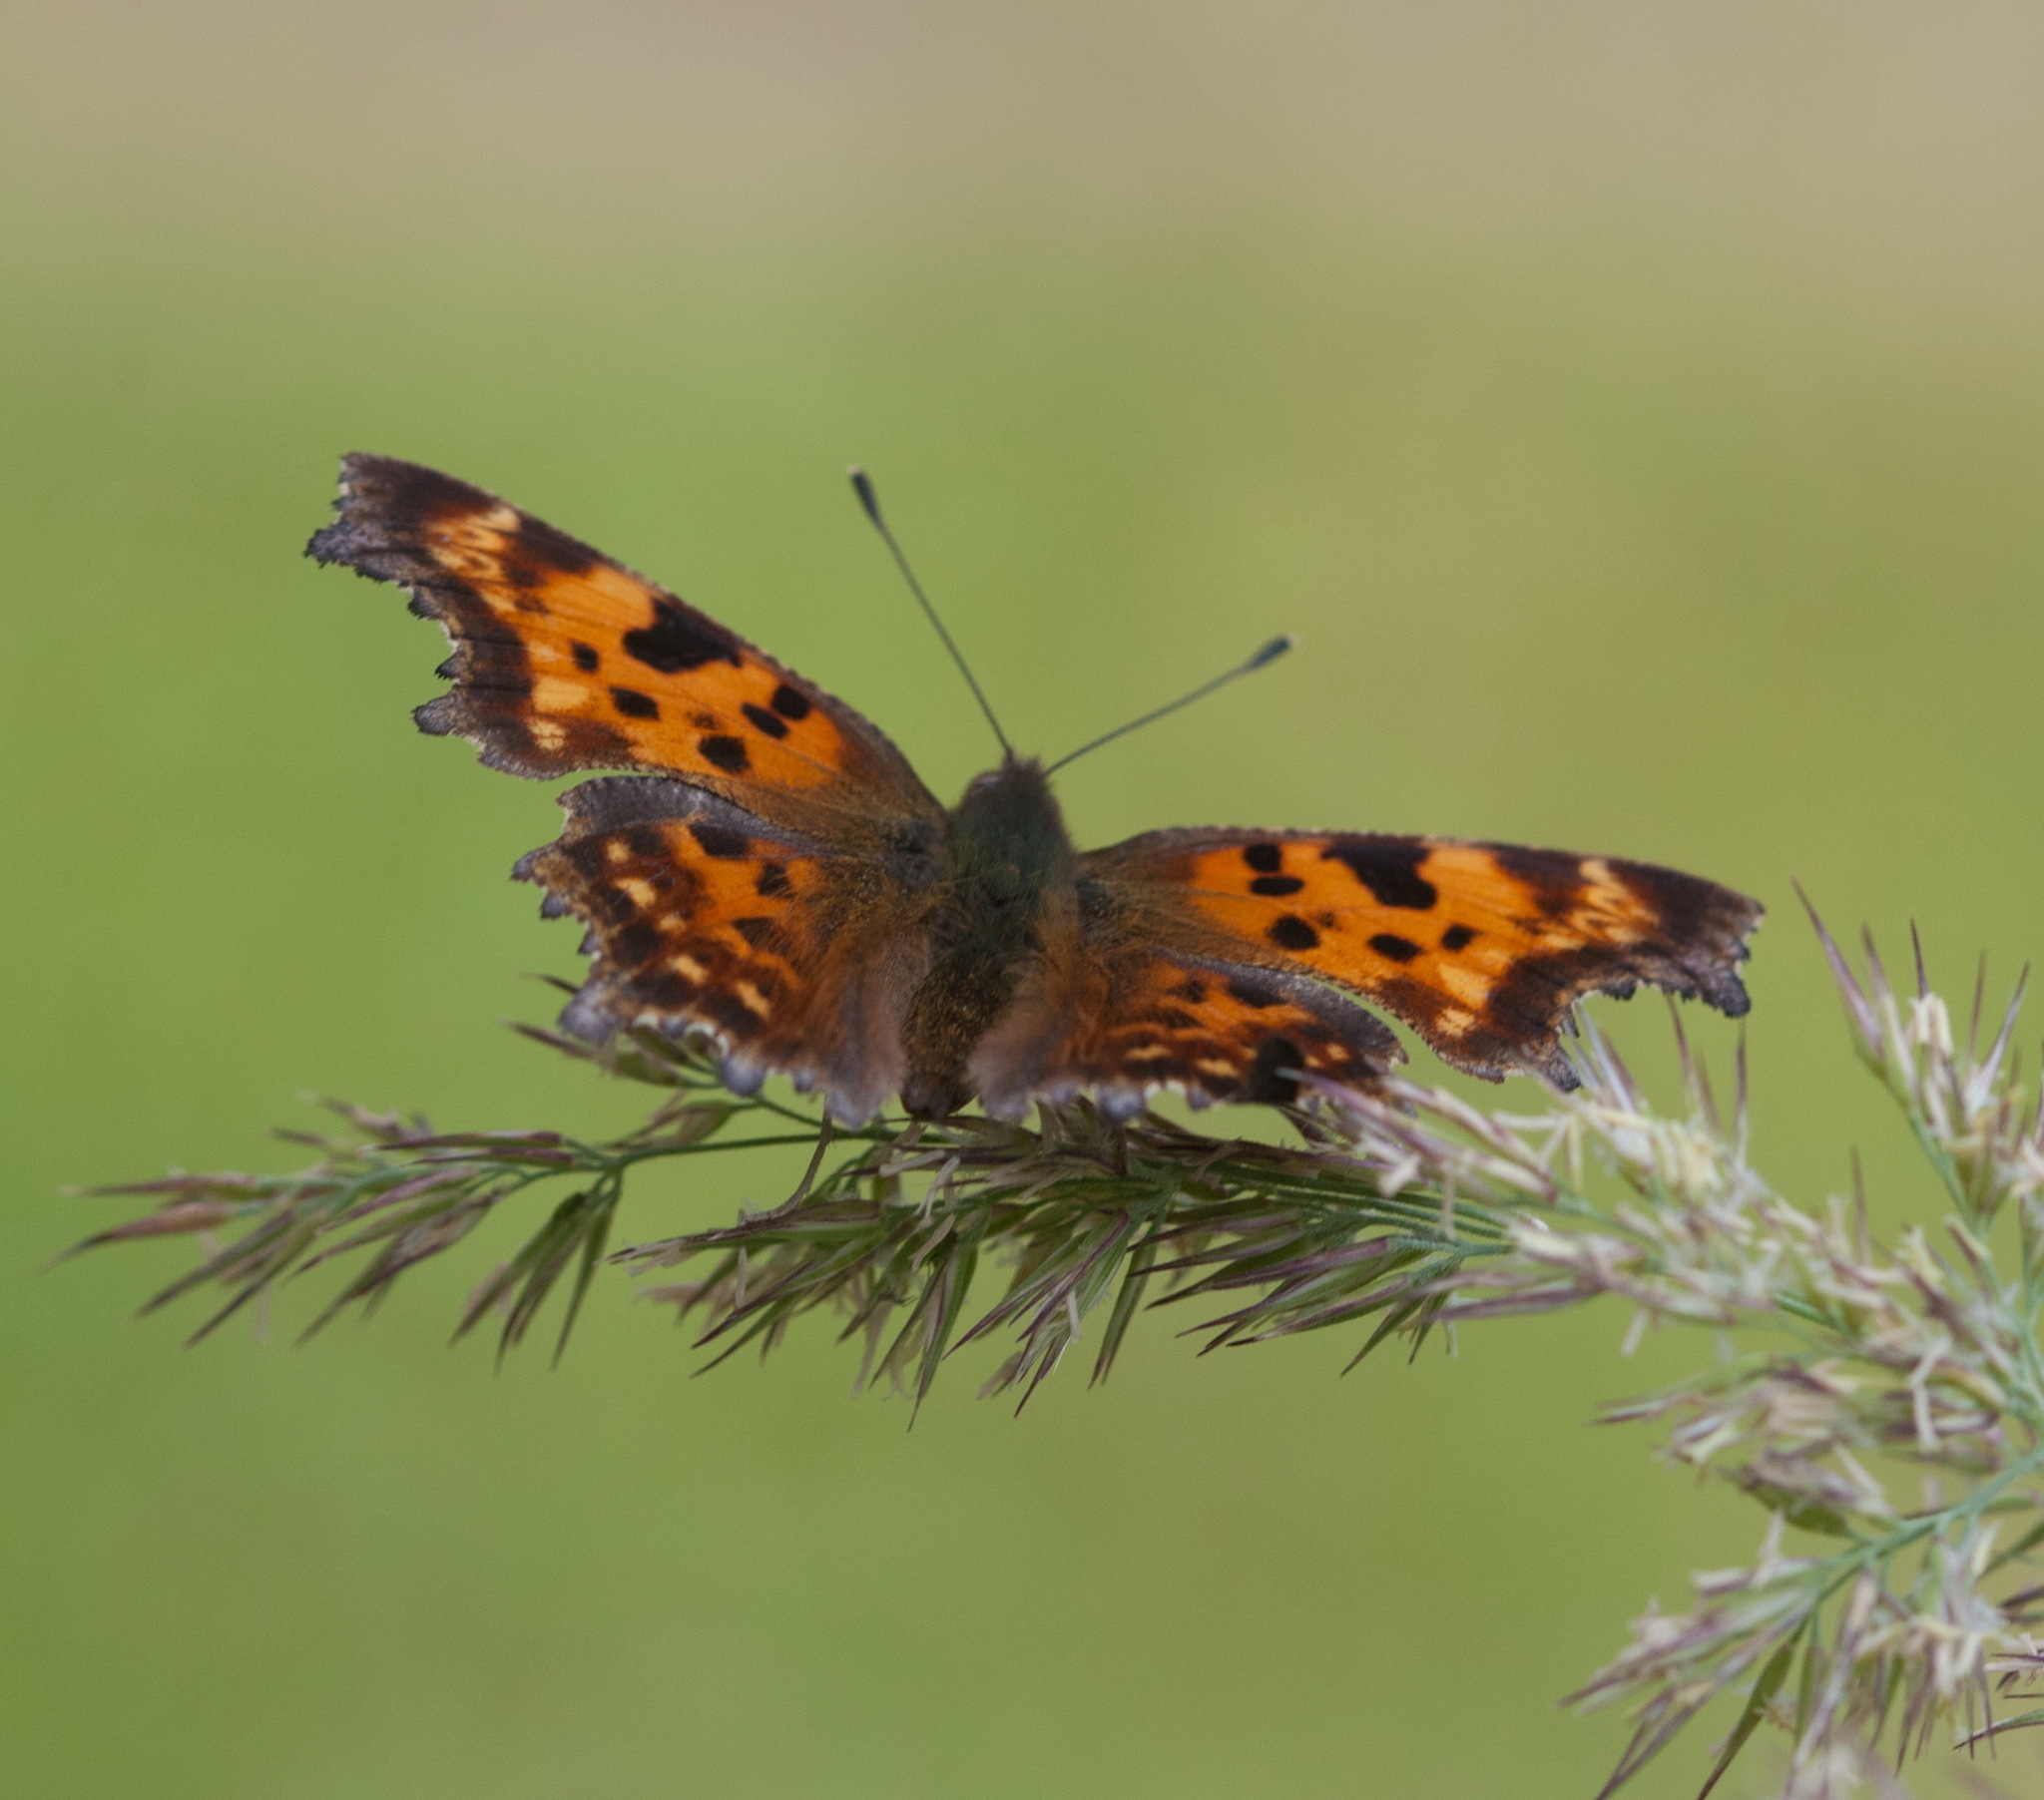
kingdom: Animalia
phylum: Arthropoda
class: Insecta
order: Lepidoptera
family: Nymphalidae
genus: Polygonia
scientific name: Polygonia c-album
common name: Comma
